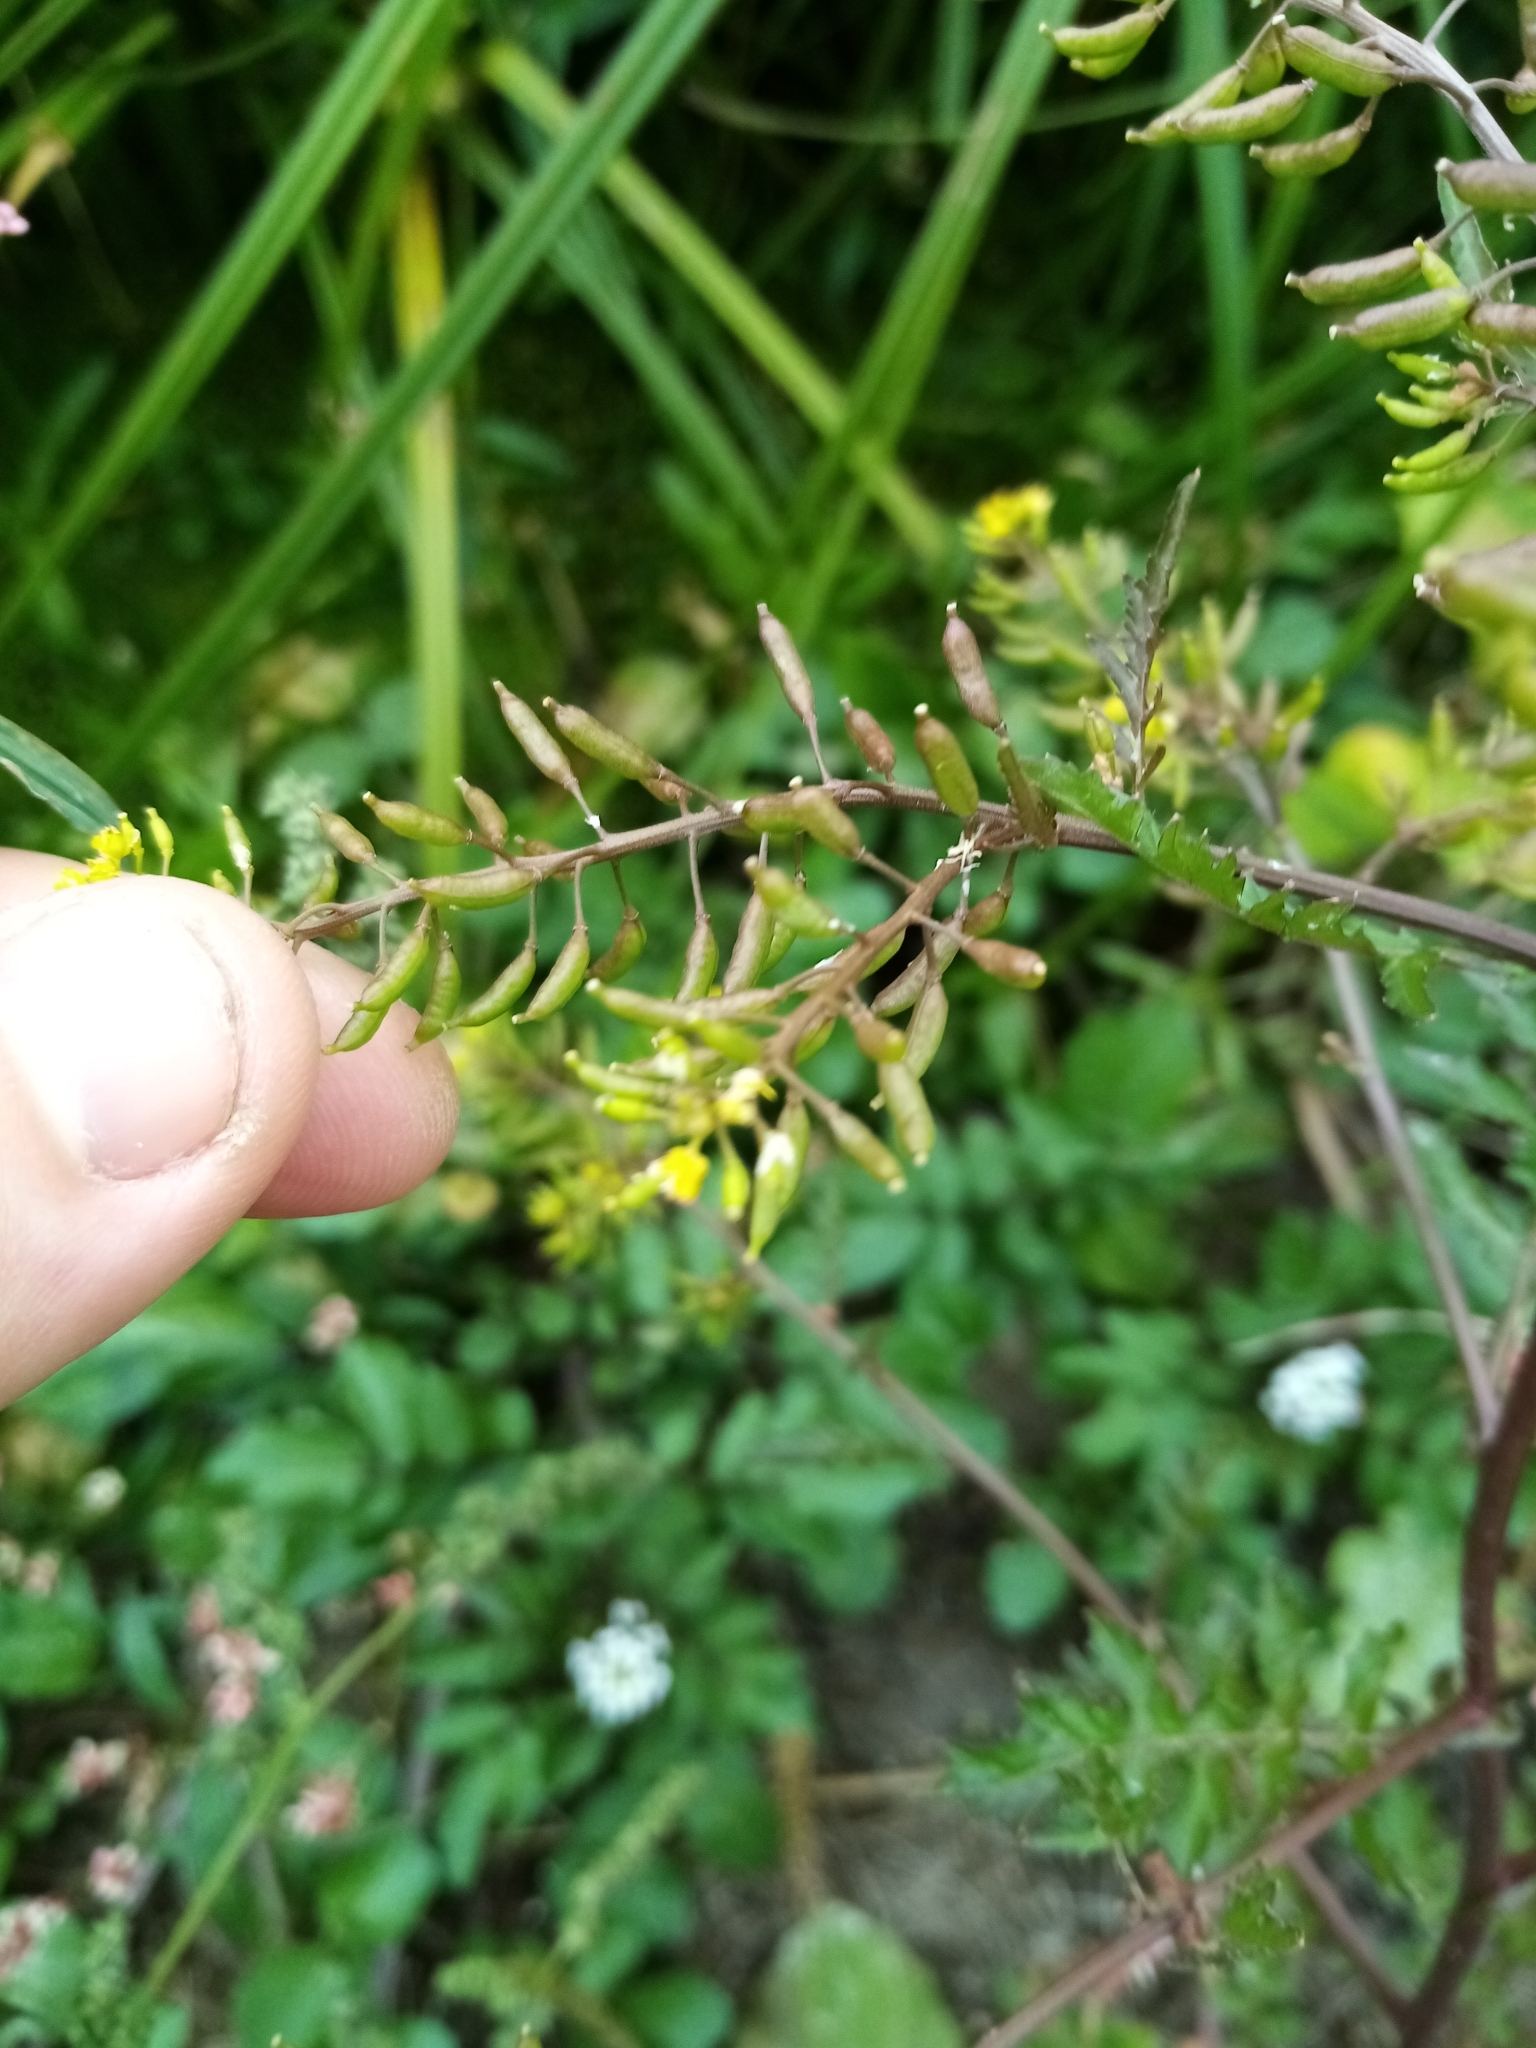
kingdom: Plantae
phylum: Tracheophyta
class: Magnoliopsida
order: Brassicales
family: Brassicaceae
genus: Rorippa
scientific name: Rorippa palustris
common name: Marsh yellow-cress
